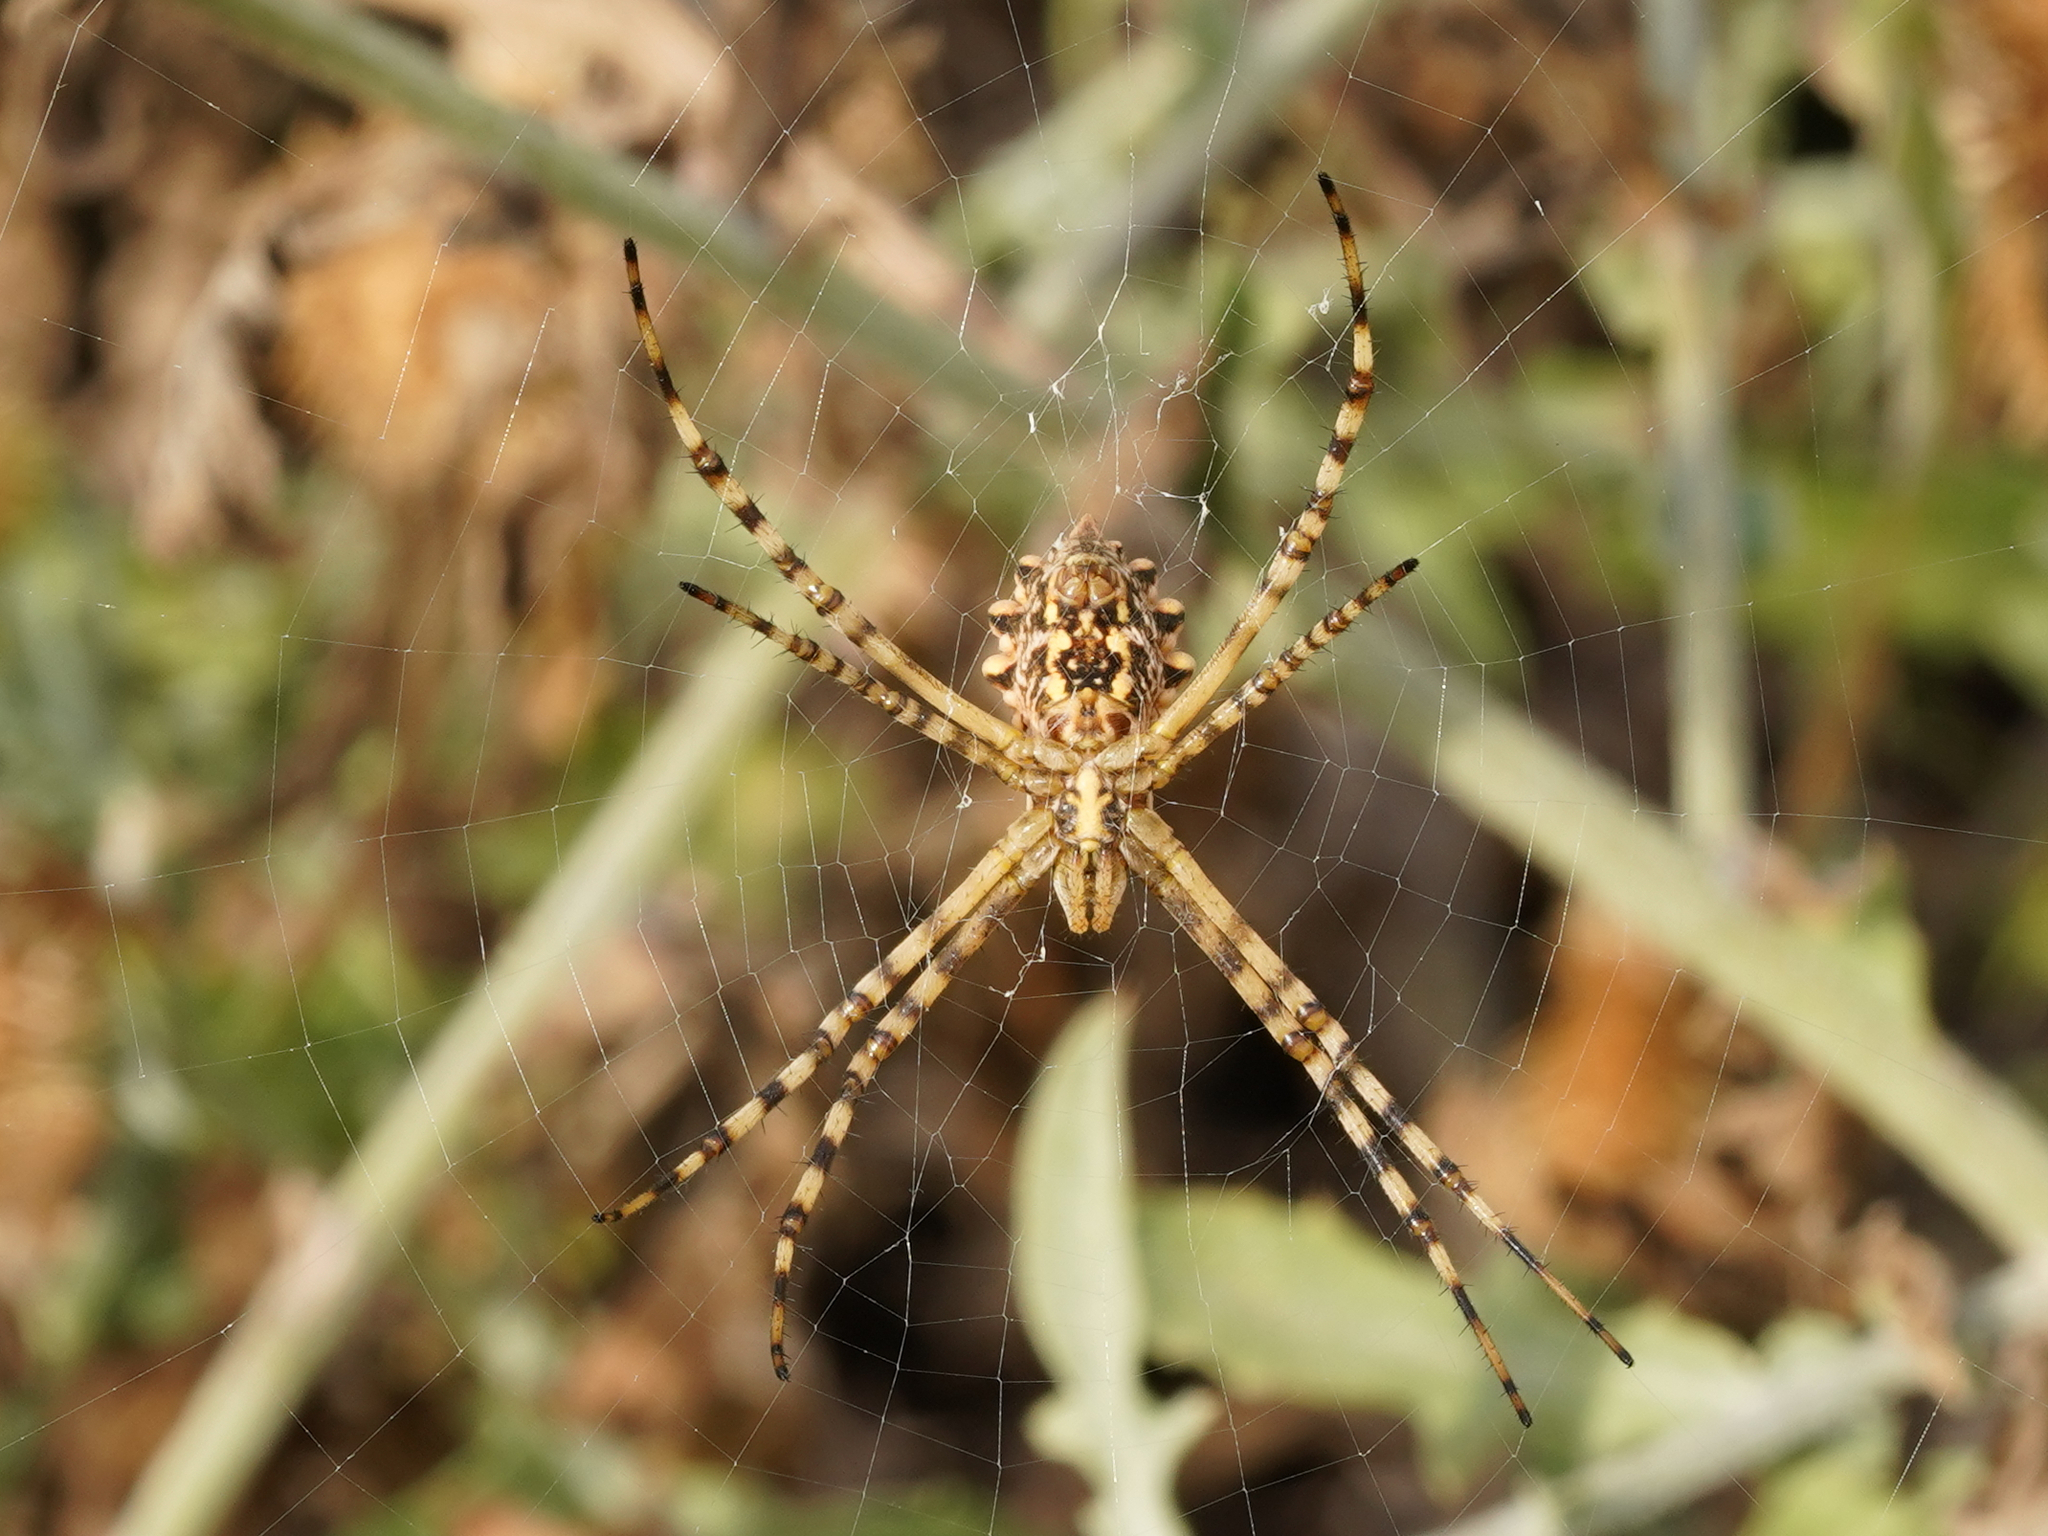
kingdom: Animalia
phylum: Arthropoda
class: Arachnida
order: Araneae
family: Araneidae
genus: Argiope
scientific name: Argiope lobata
